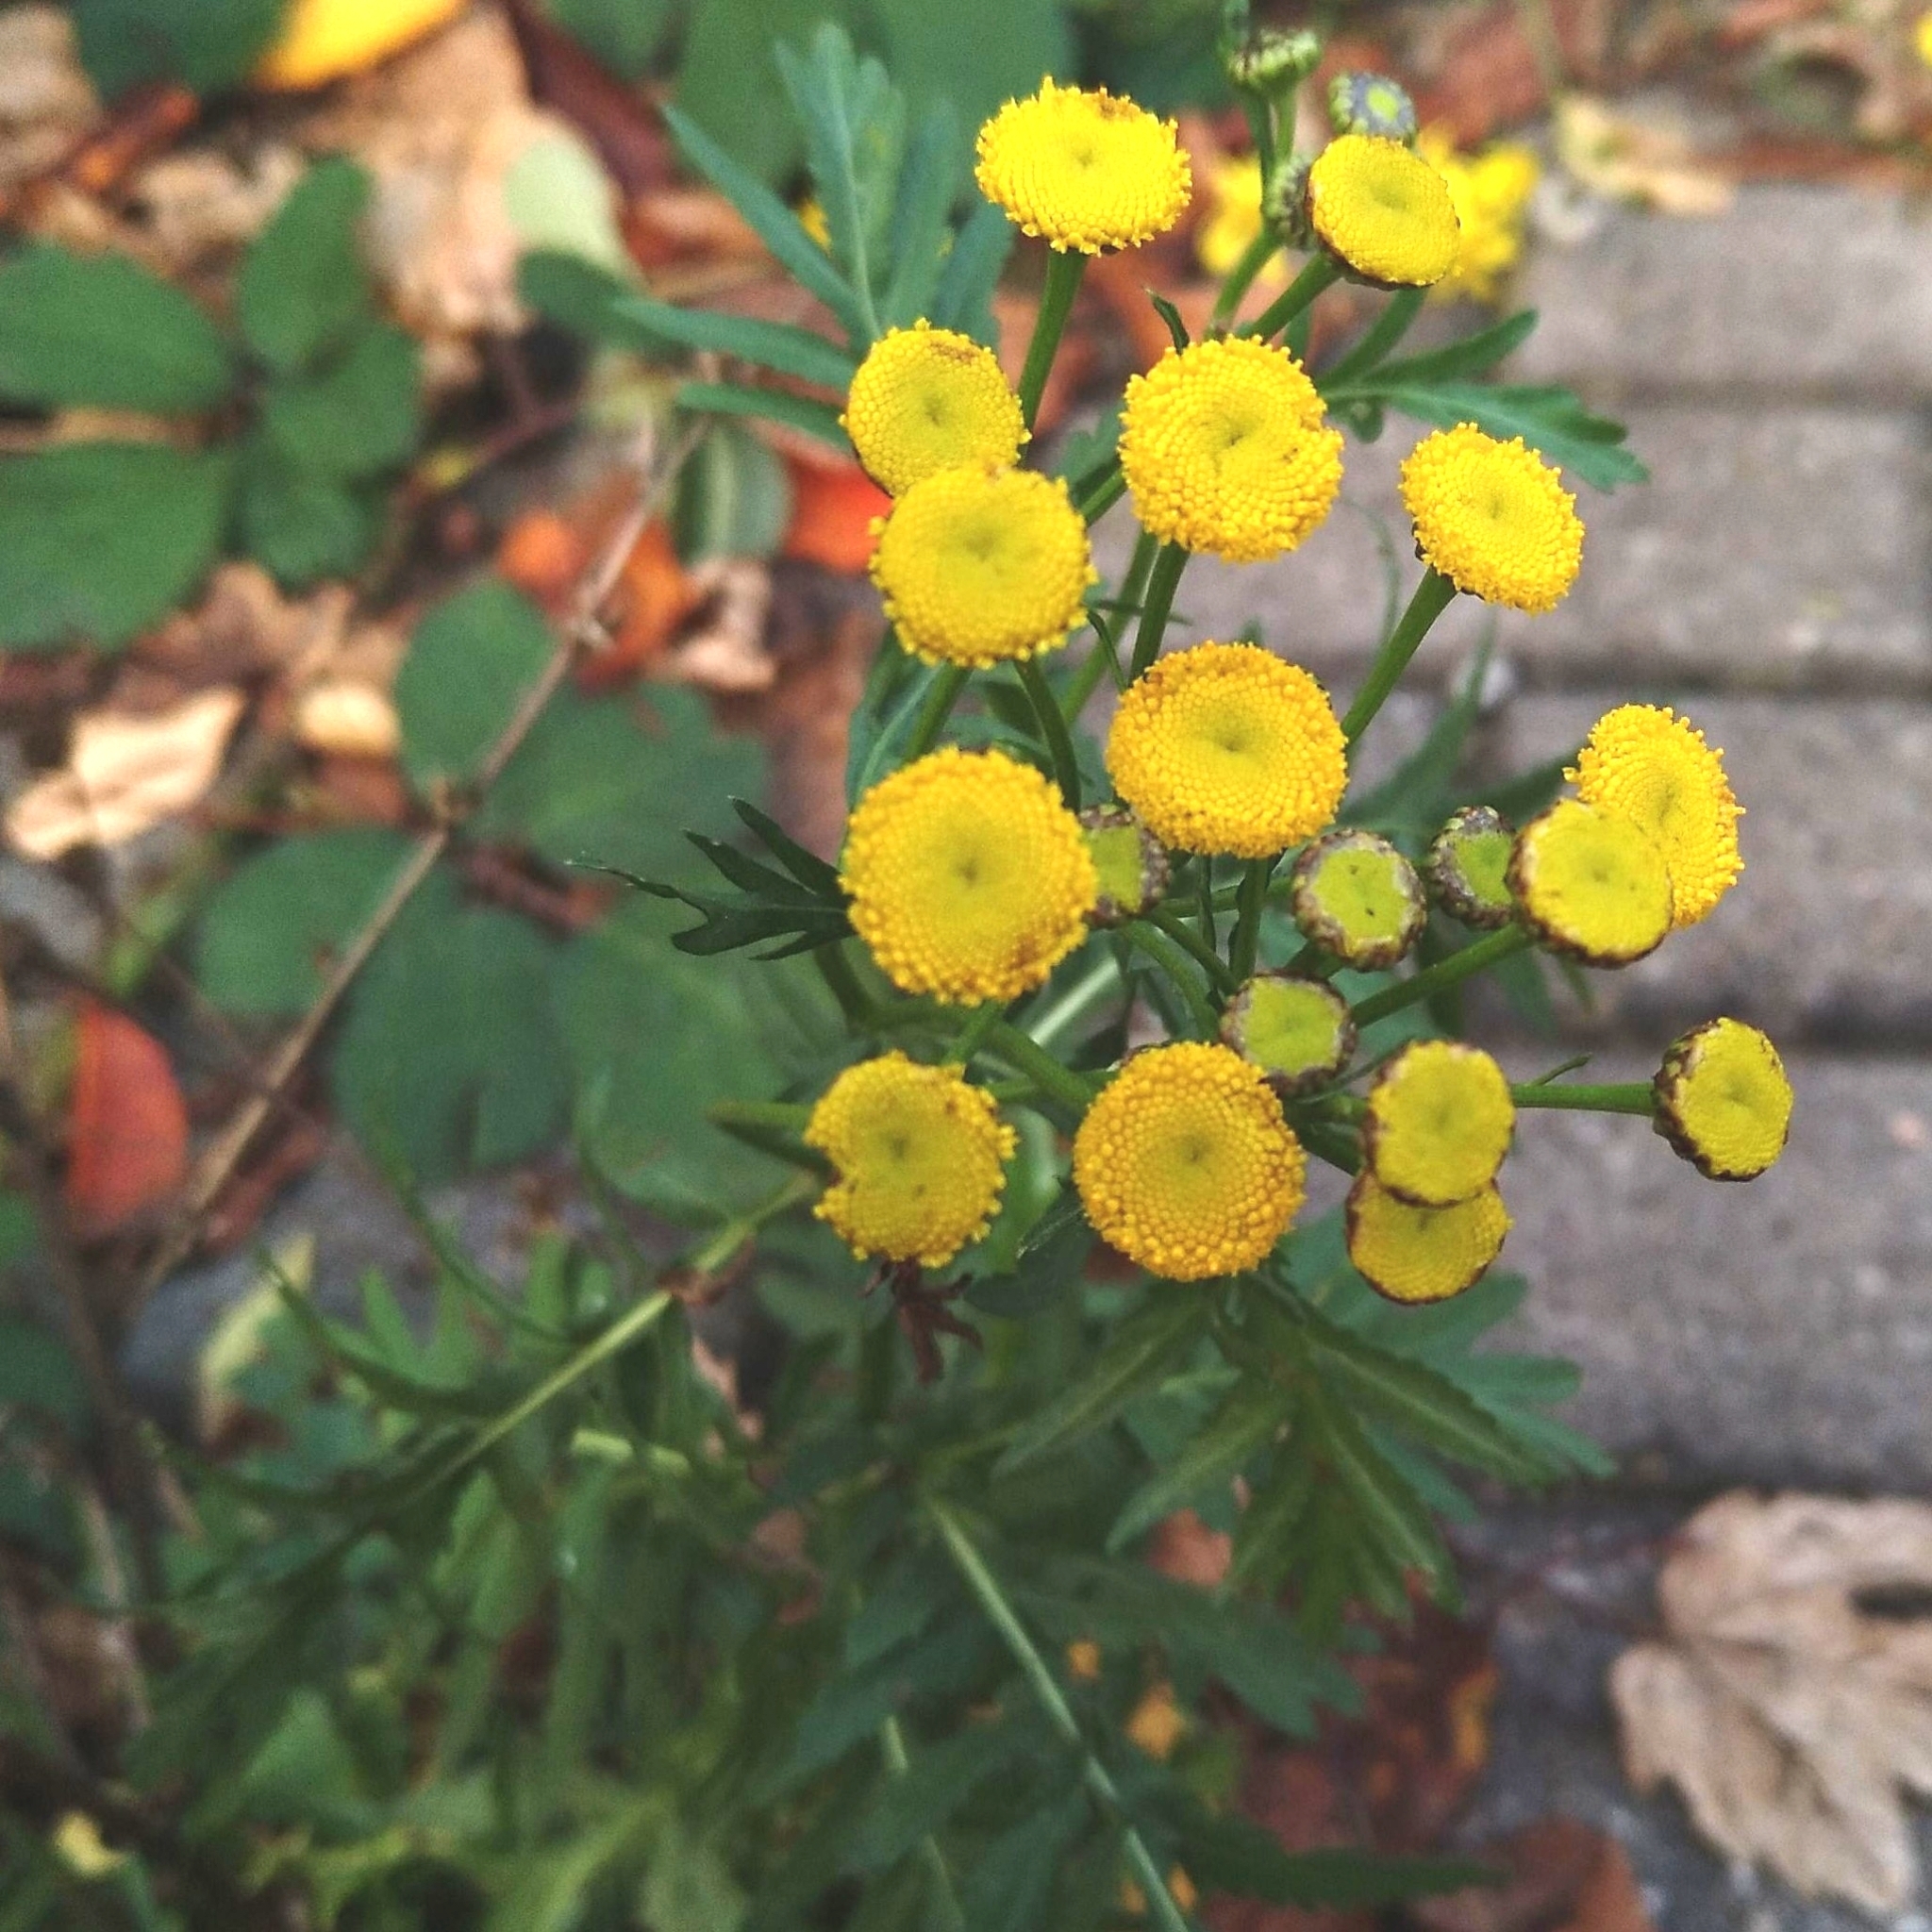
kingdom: Plantae
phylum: Tracheophyta
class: Magnoliopsida
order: Asterales
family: Asteraceae
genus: Tanacetum
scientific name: Tanacetum vulgare
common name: Common tansy
